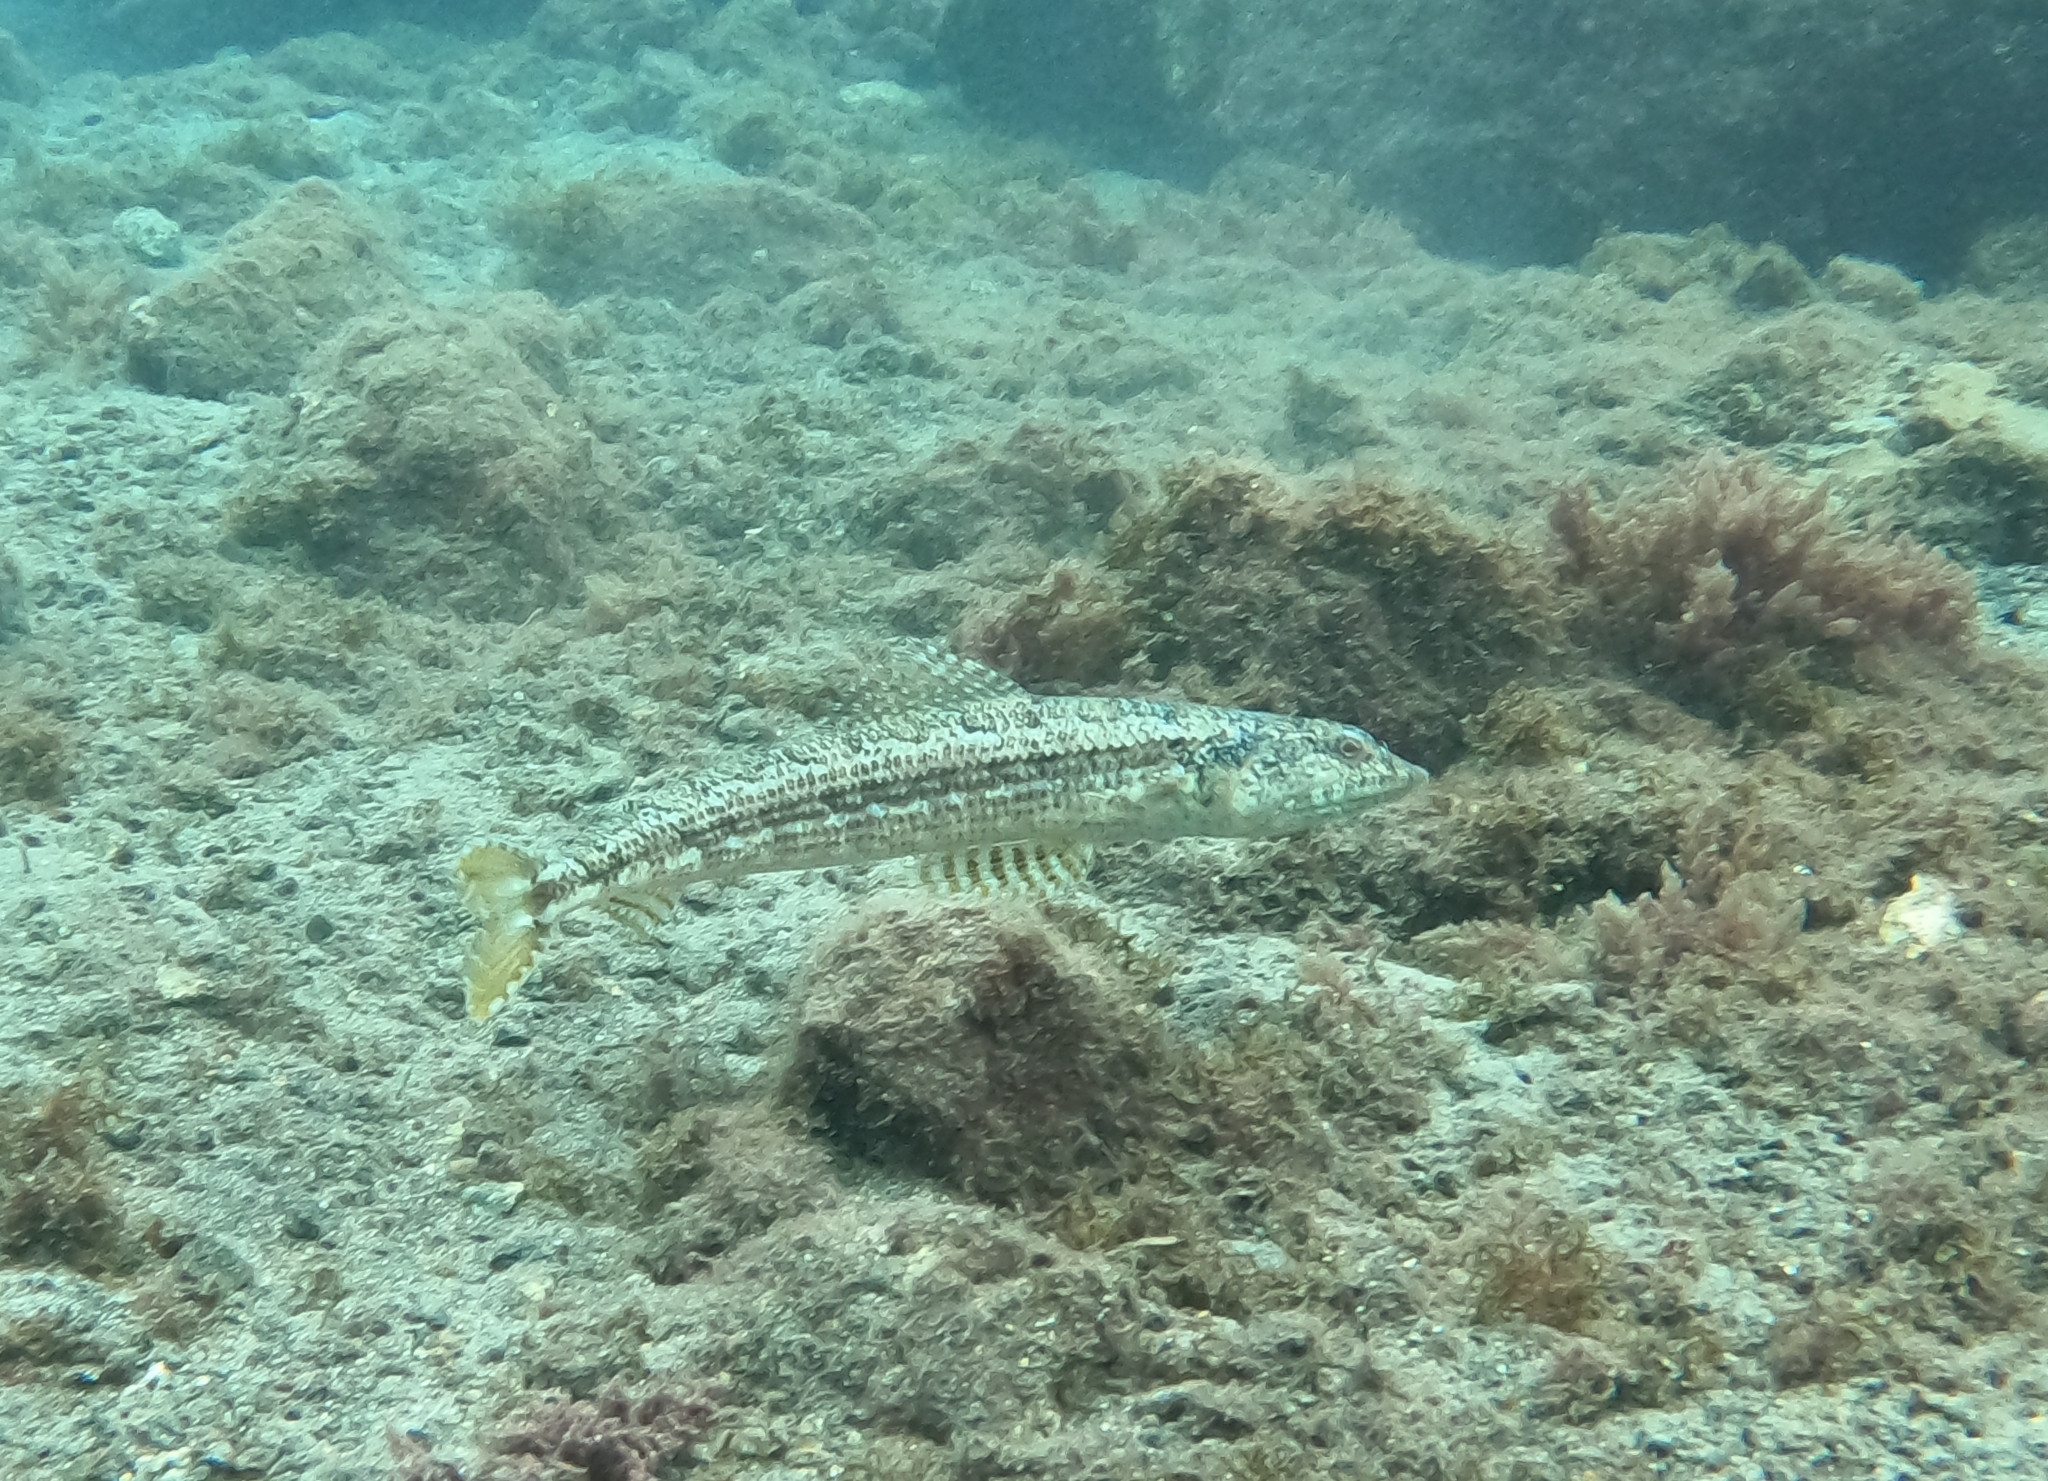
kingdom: Animalia
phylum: Chordata
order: Aulopiformes
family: Synodontidae
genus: Synodus
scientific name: Synodus synodus
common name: Red lizardfish
